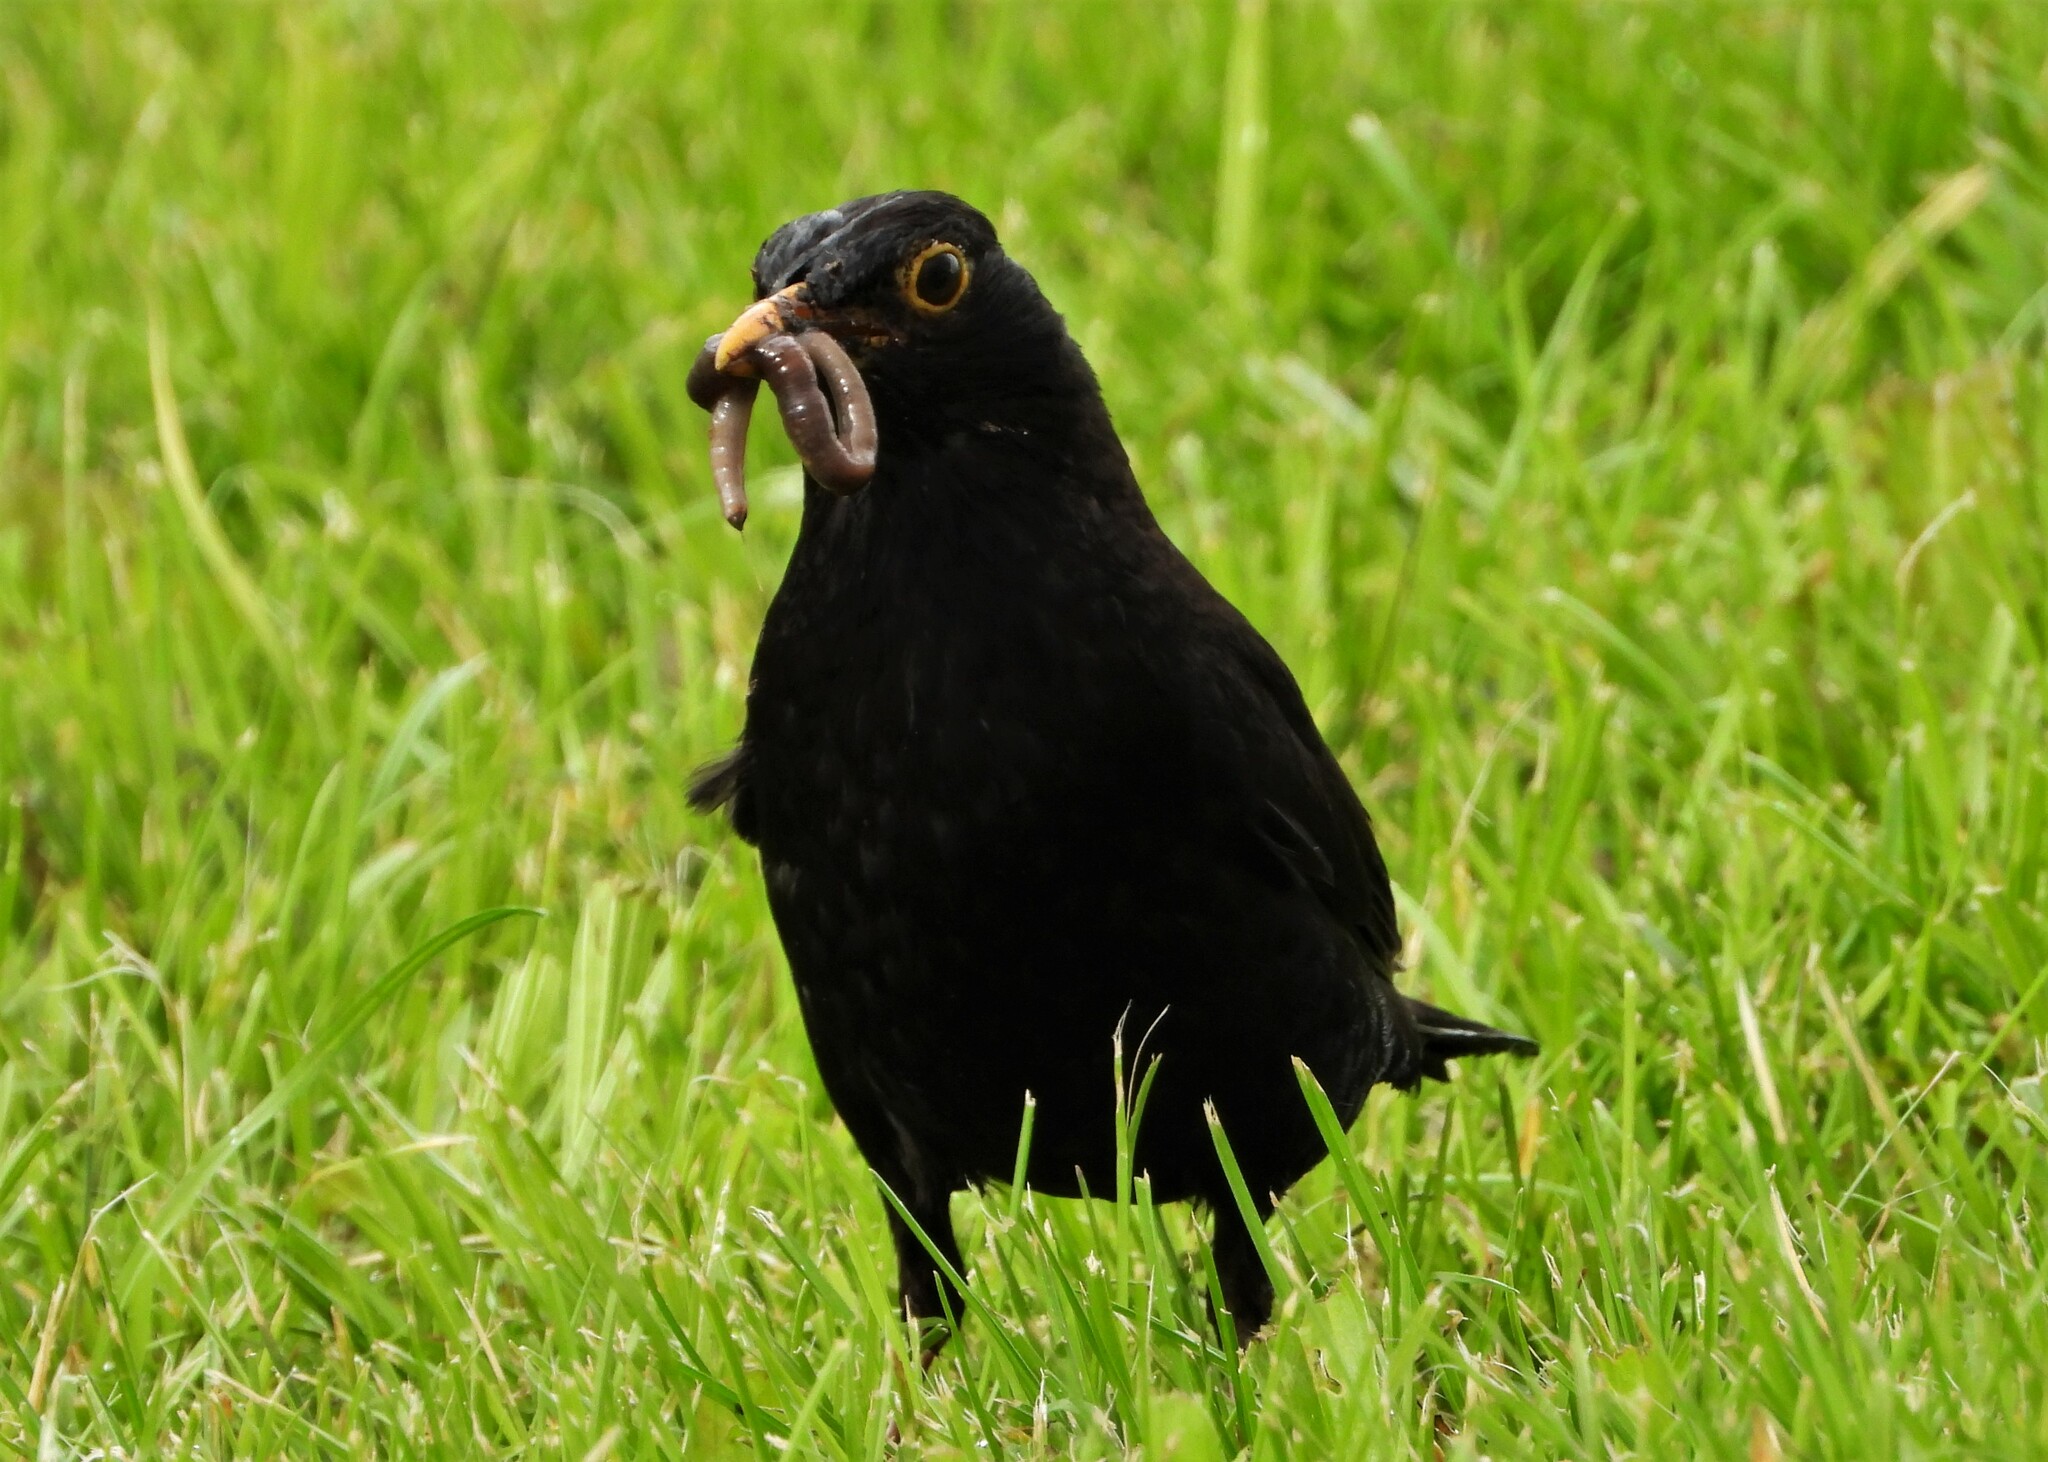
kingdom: Animalia
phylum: Chordata
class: Aves
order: Passeriformes
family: Turdidae
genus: Turdus
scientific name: Turdus merula
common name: Common blackbird
